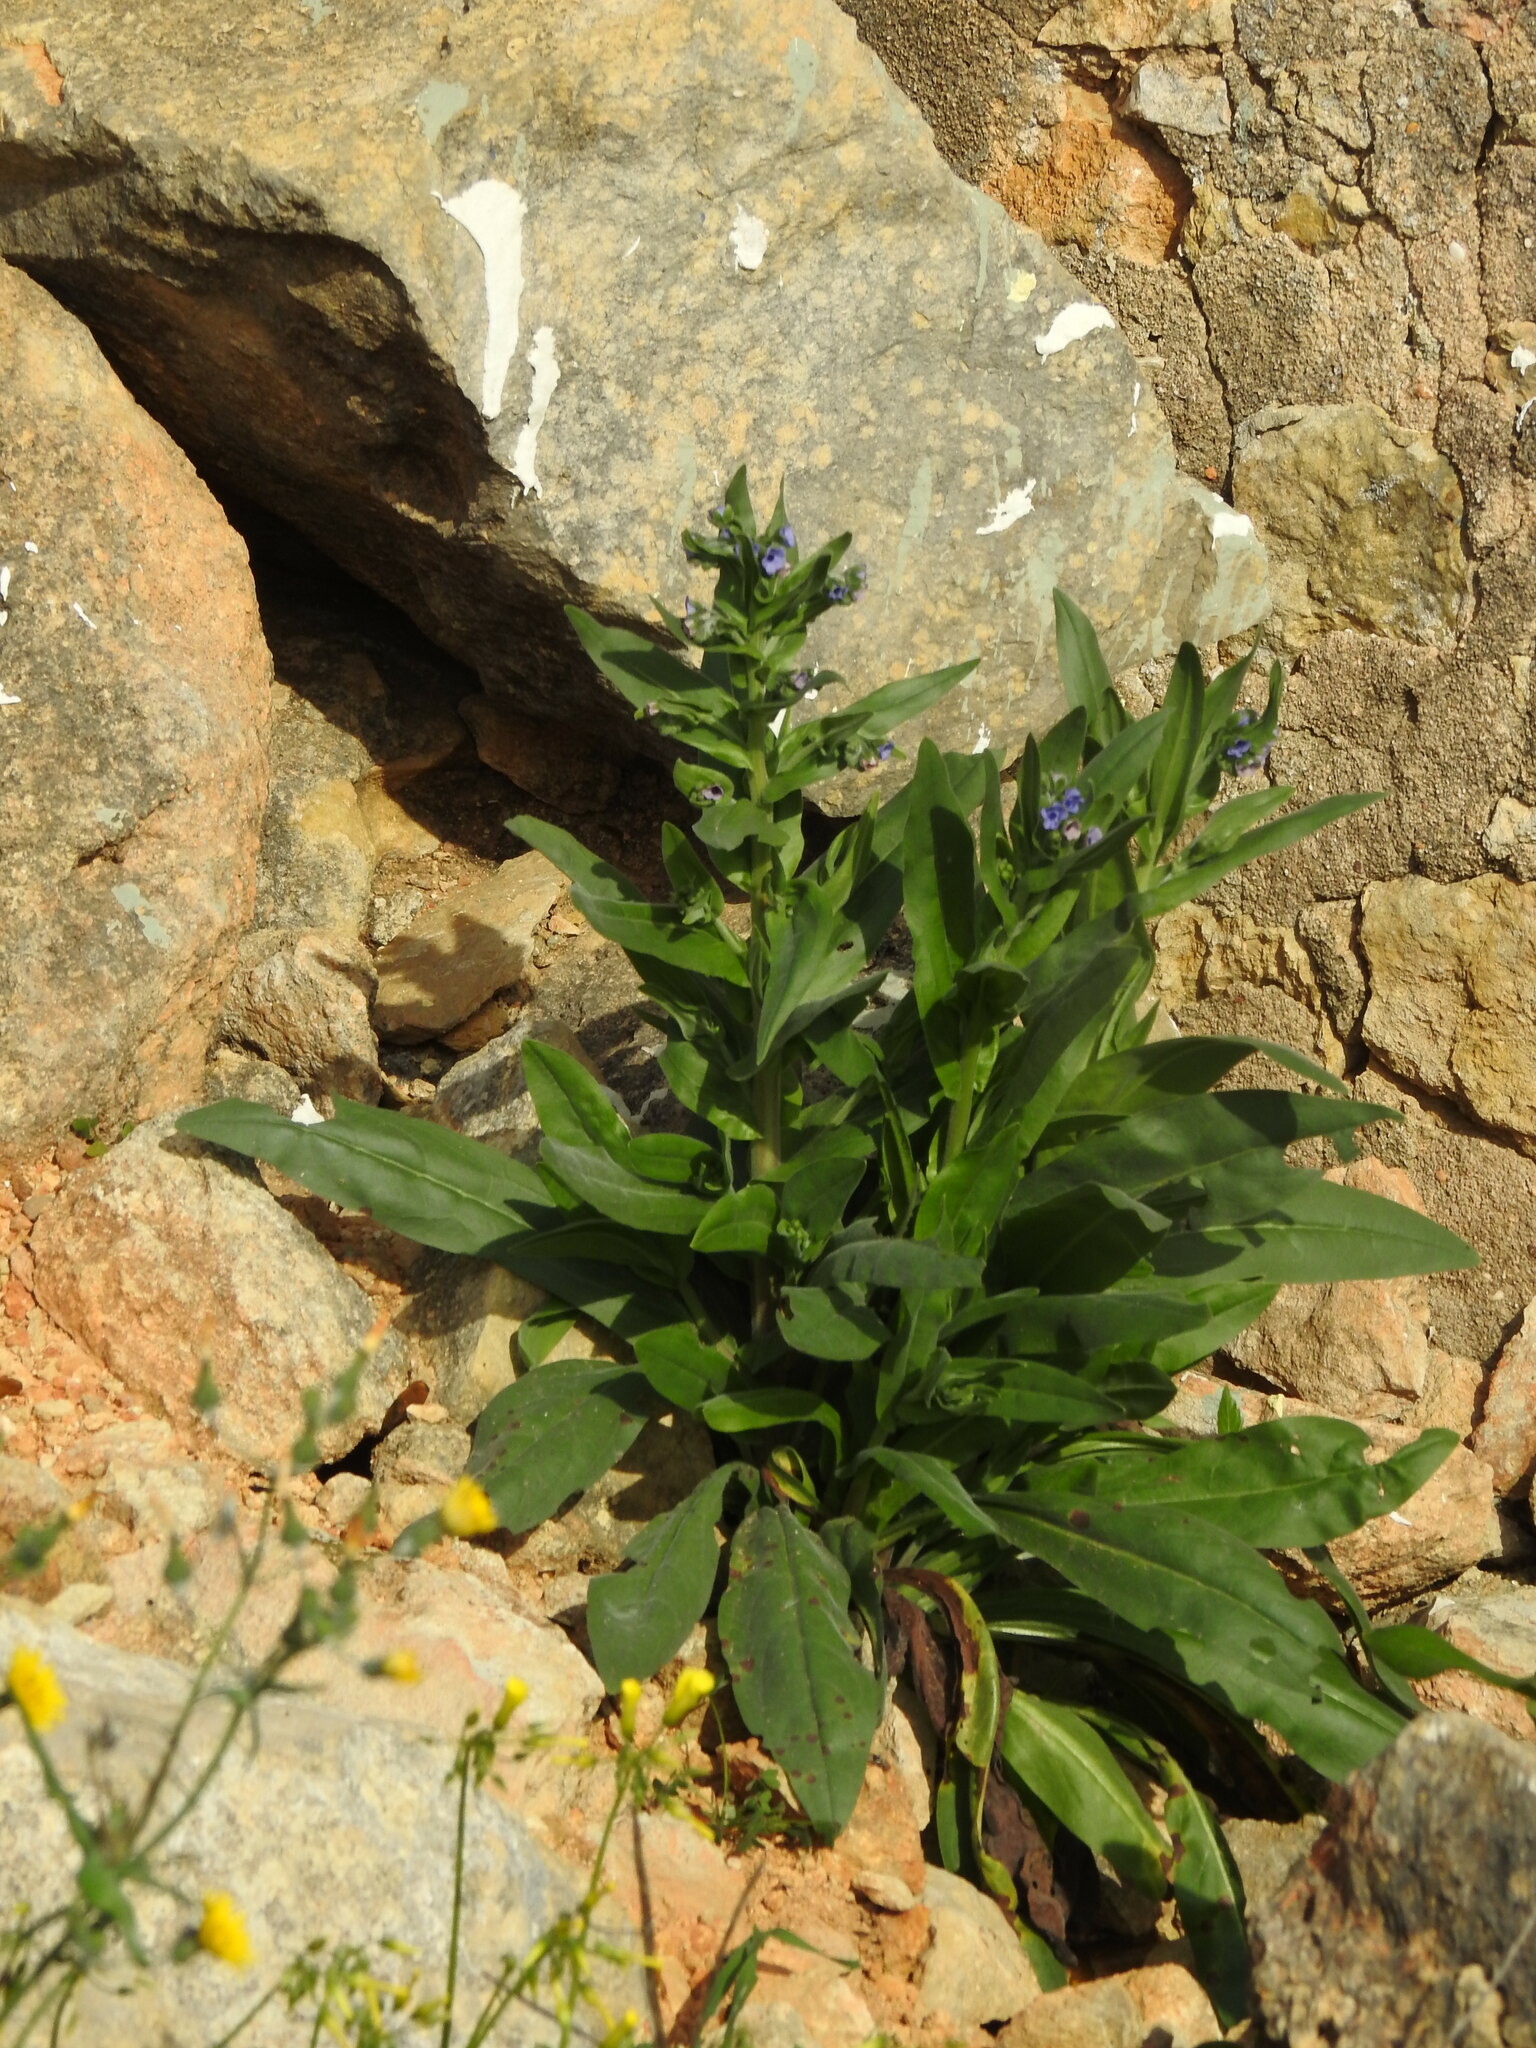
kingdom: Plantae
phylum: Tracheophyta
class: Magnoliopsida
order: Boraginales
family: Boraginaceae
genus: Cynoglossum
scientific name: Cynoglossum creticum
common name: Blue hound's tongue
